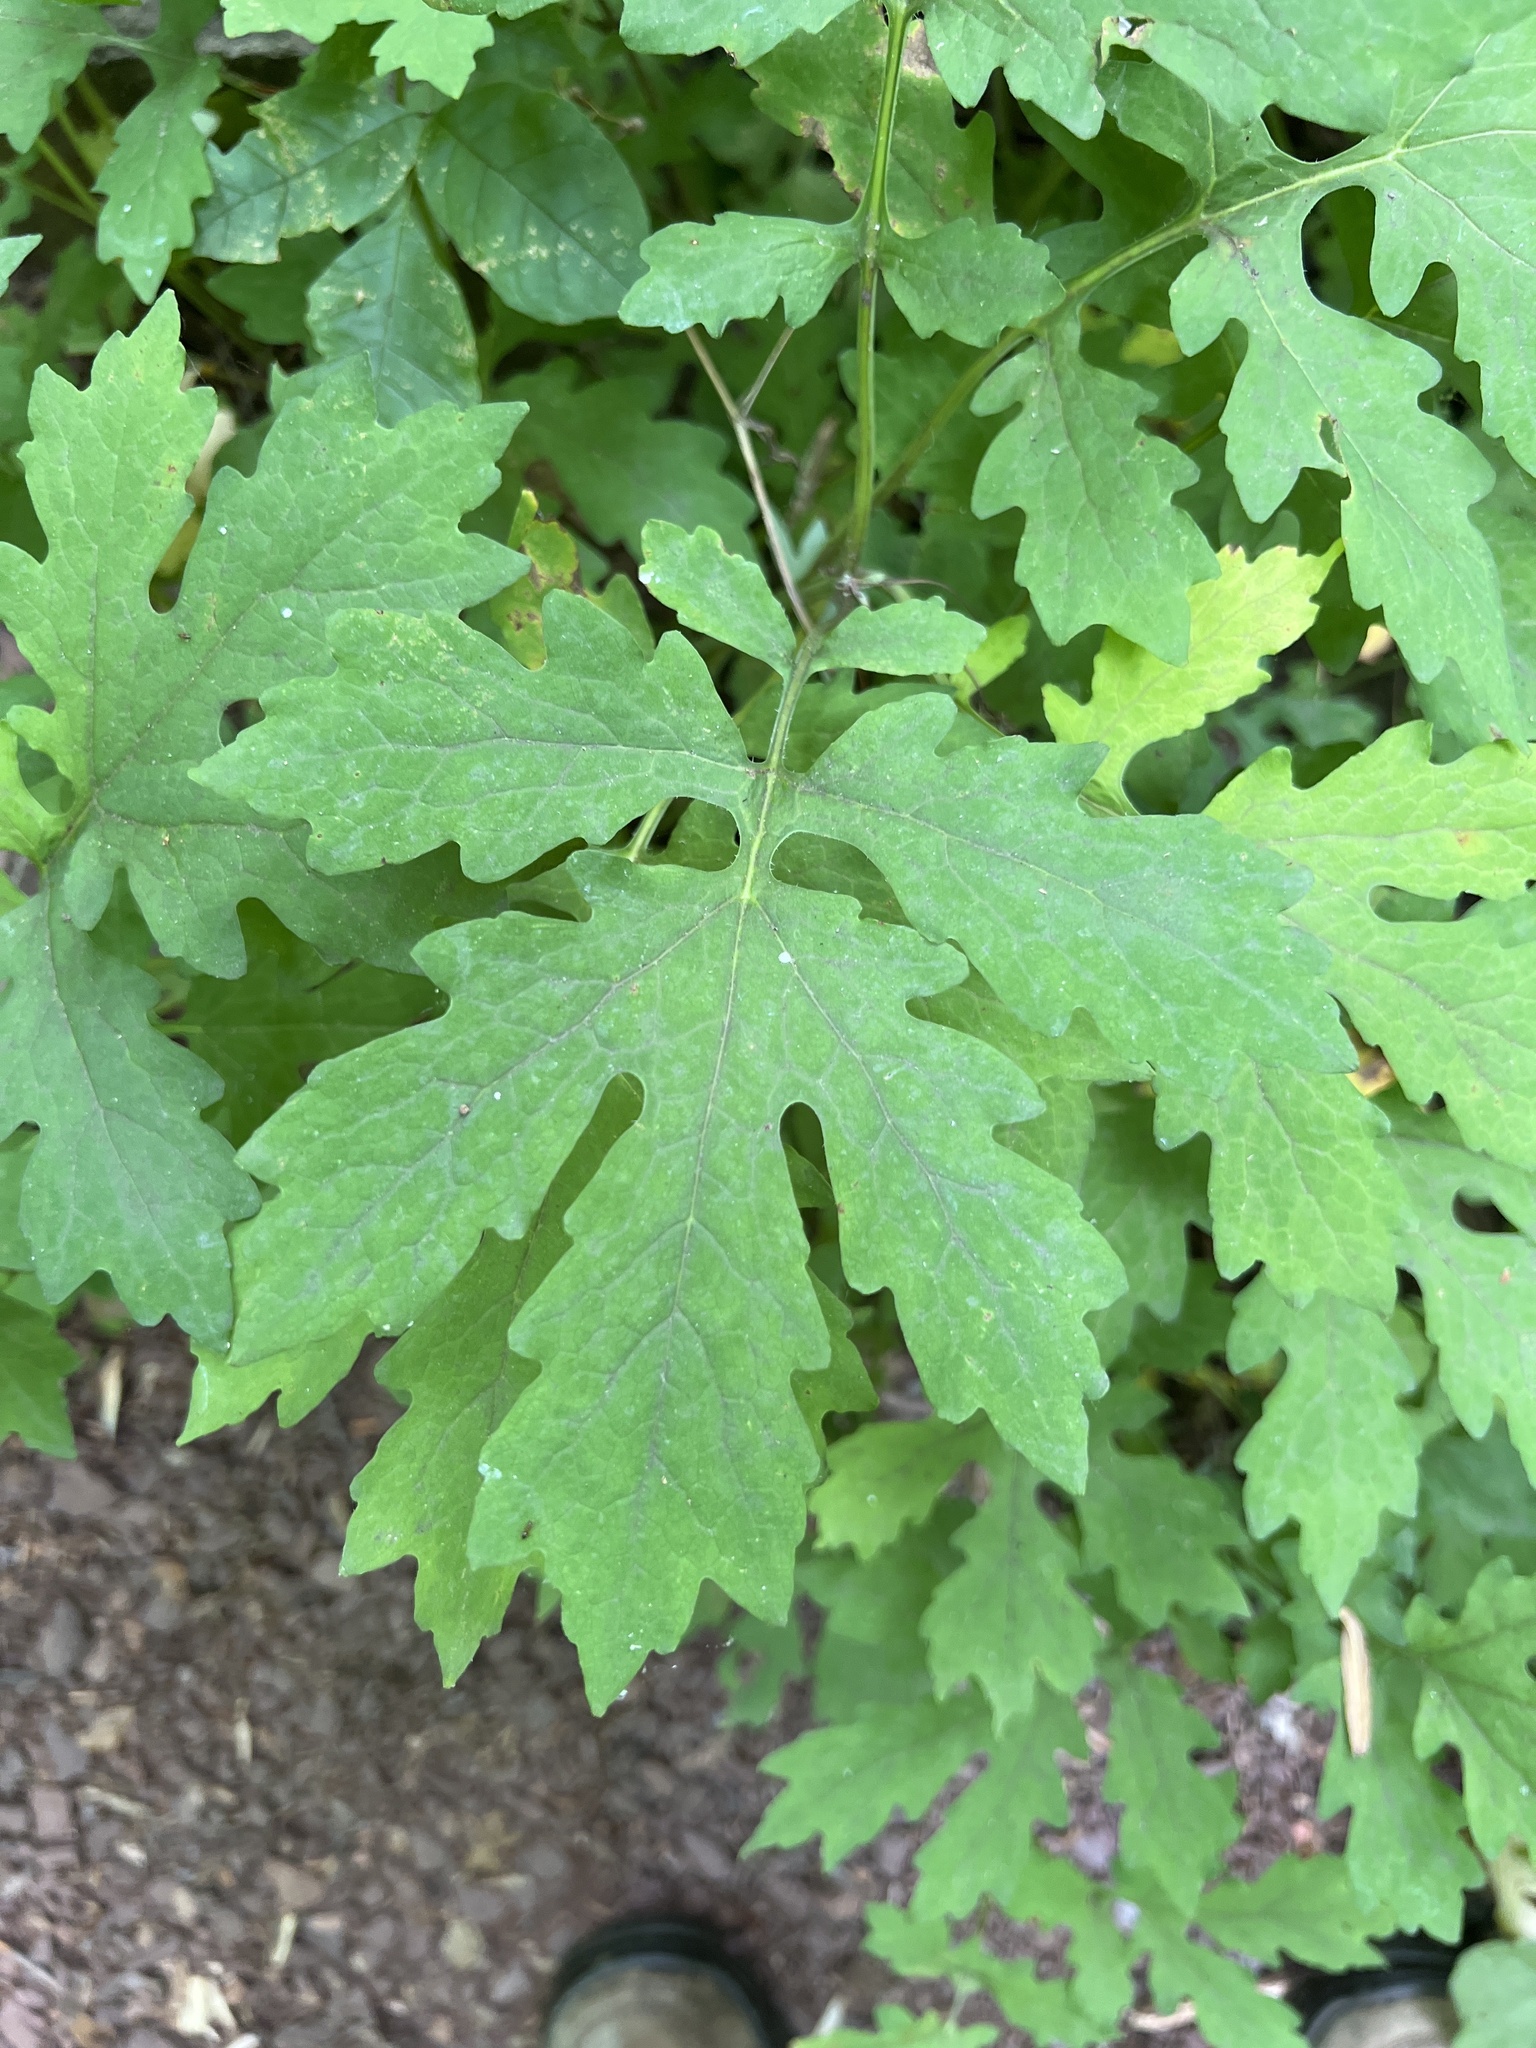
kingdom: Plantae
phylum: Tracheophyta
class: Magnoliopsida
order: Ranunculales
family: Papaveraceae
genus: Stylophorum
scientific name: Stylophorum diphyllum
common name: Celandine poppy
